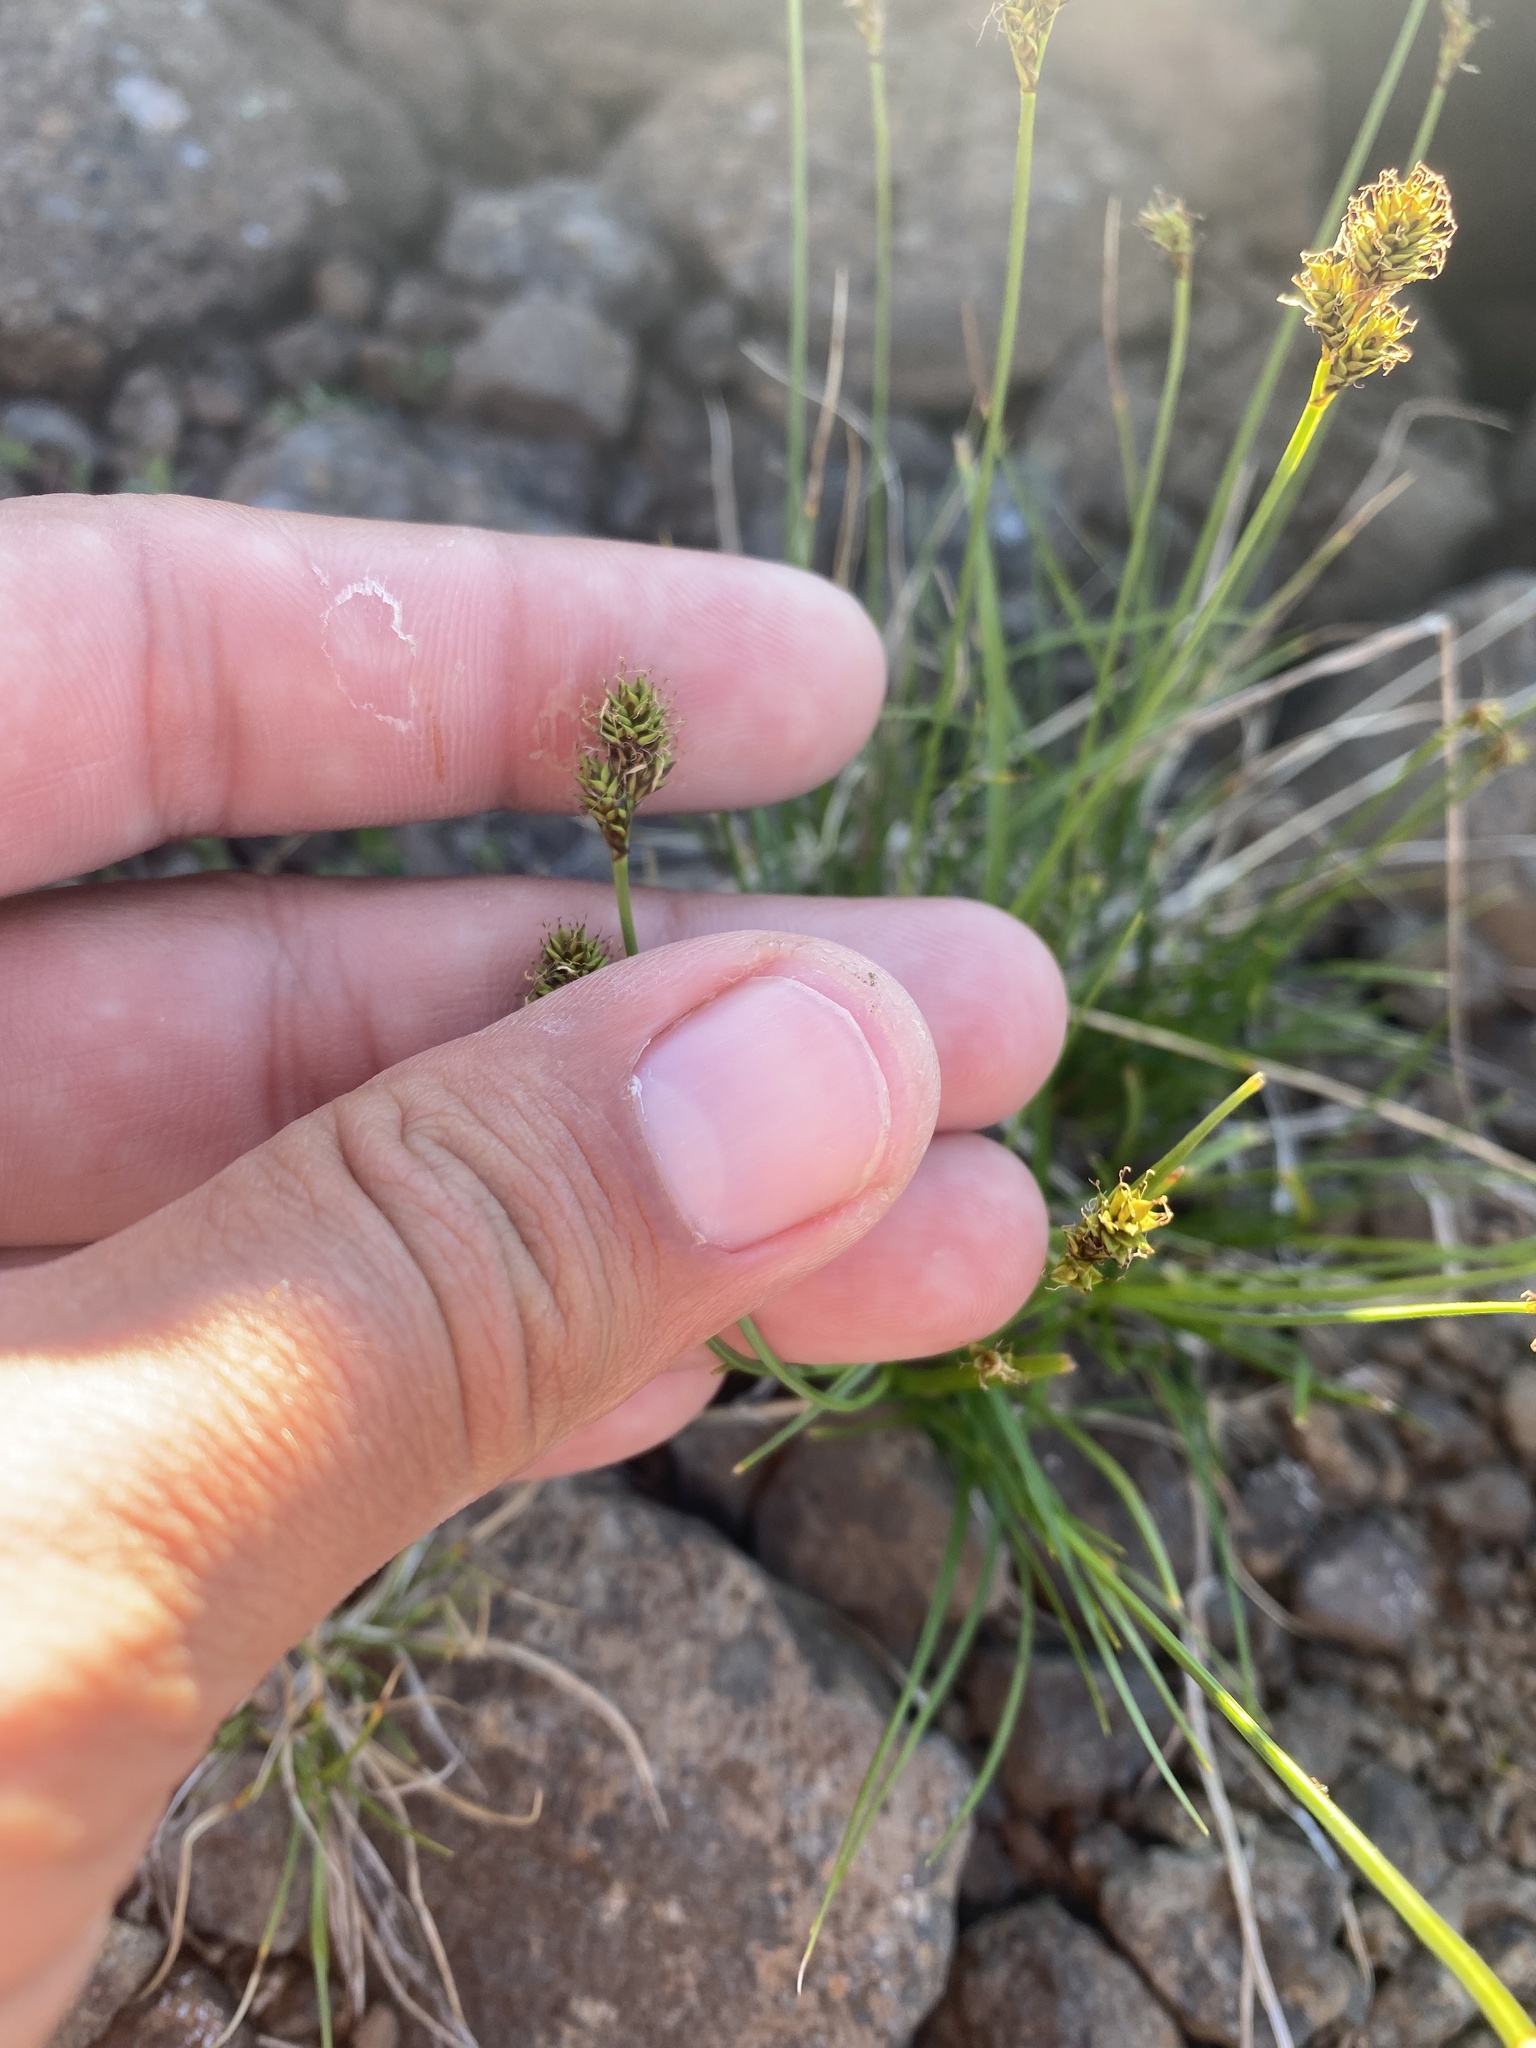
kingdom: Plantae
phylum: Tracheophyta
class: Liliopsida
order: Poales
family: Cyperaceae
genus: Carex
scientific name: Carex lachenalii
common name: Hare's-foot sedge
